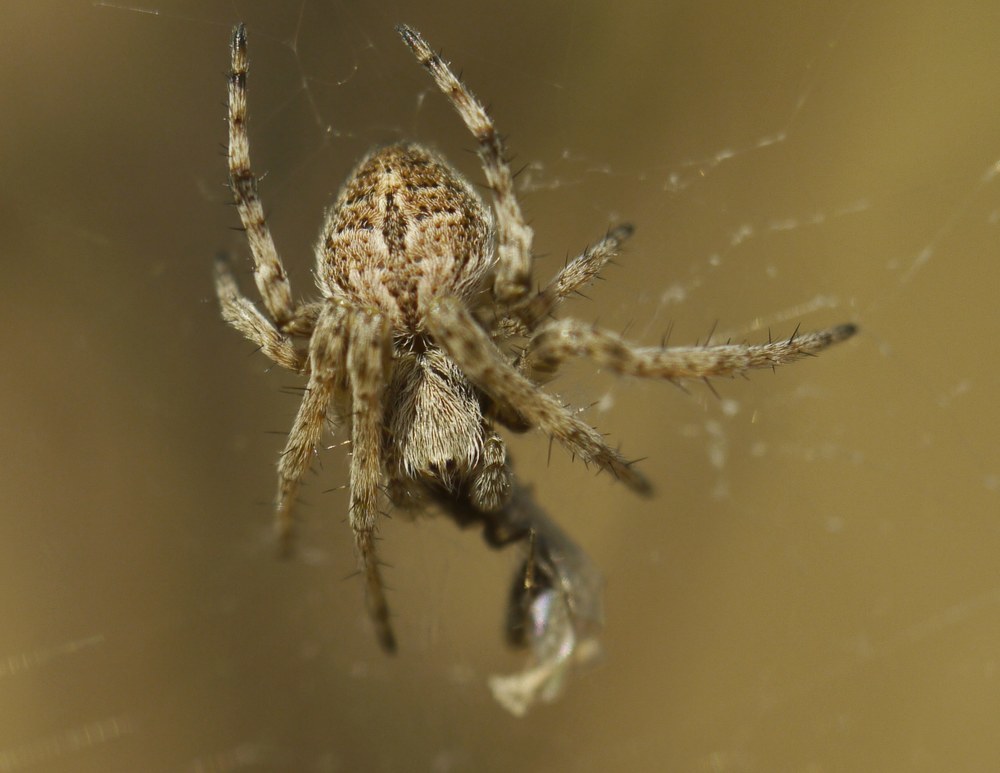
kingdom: Animalia
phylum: Arthropoda
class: Arachnida
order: Araneae
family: Araneidae
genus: Agalenatea
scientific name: Agalenatea redii
